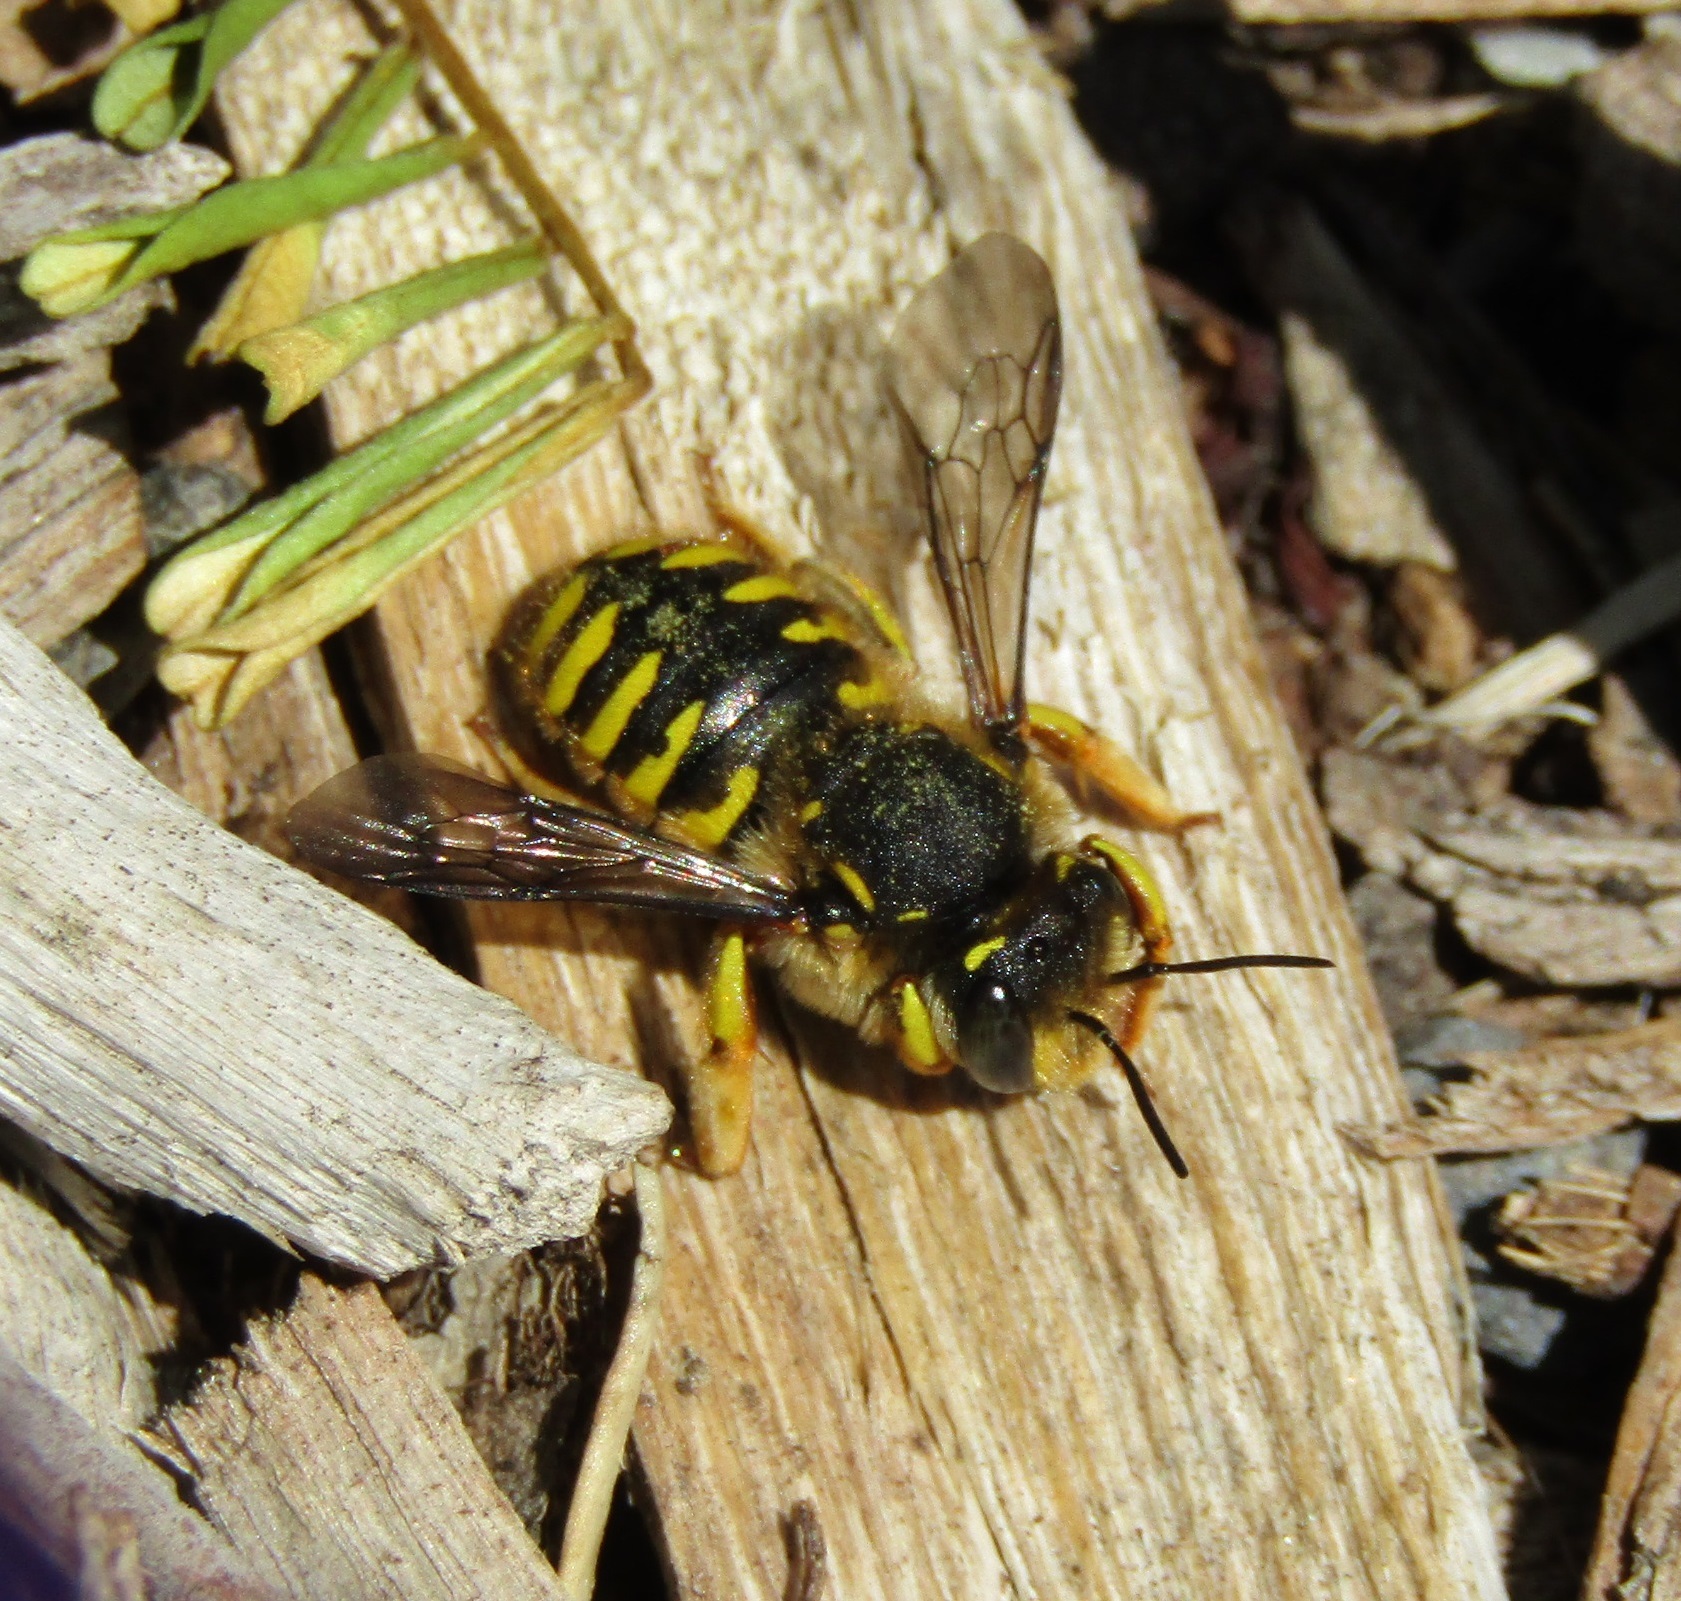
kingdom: Animalia
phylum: Arthropoda
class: Insecta
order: Hymenoptera
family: Megachilidae
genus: Anthidium
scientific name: Anthidium manicatum
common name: Wool carder bee
